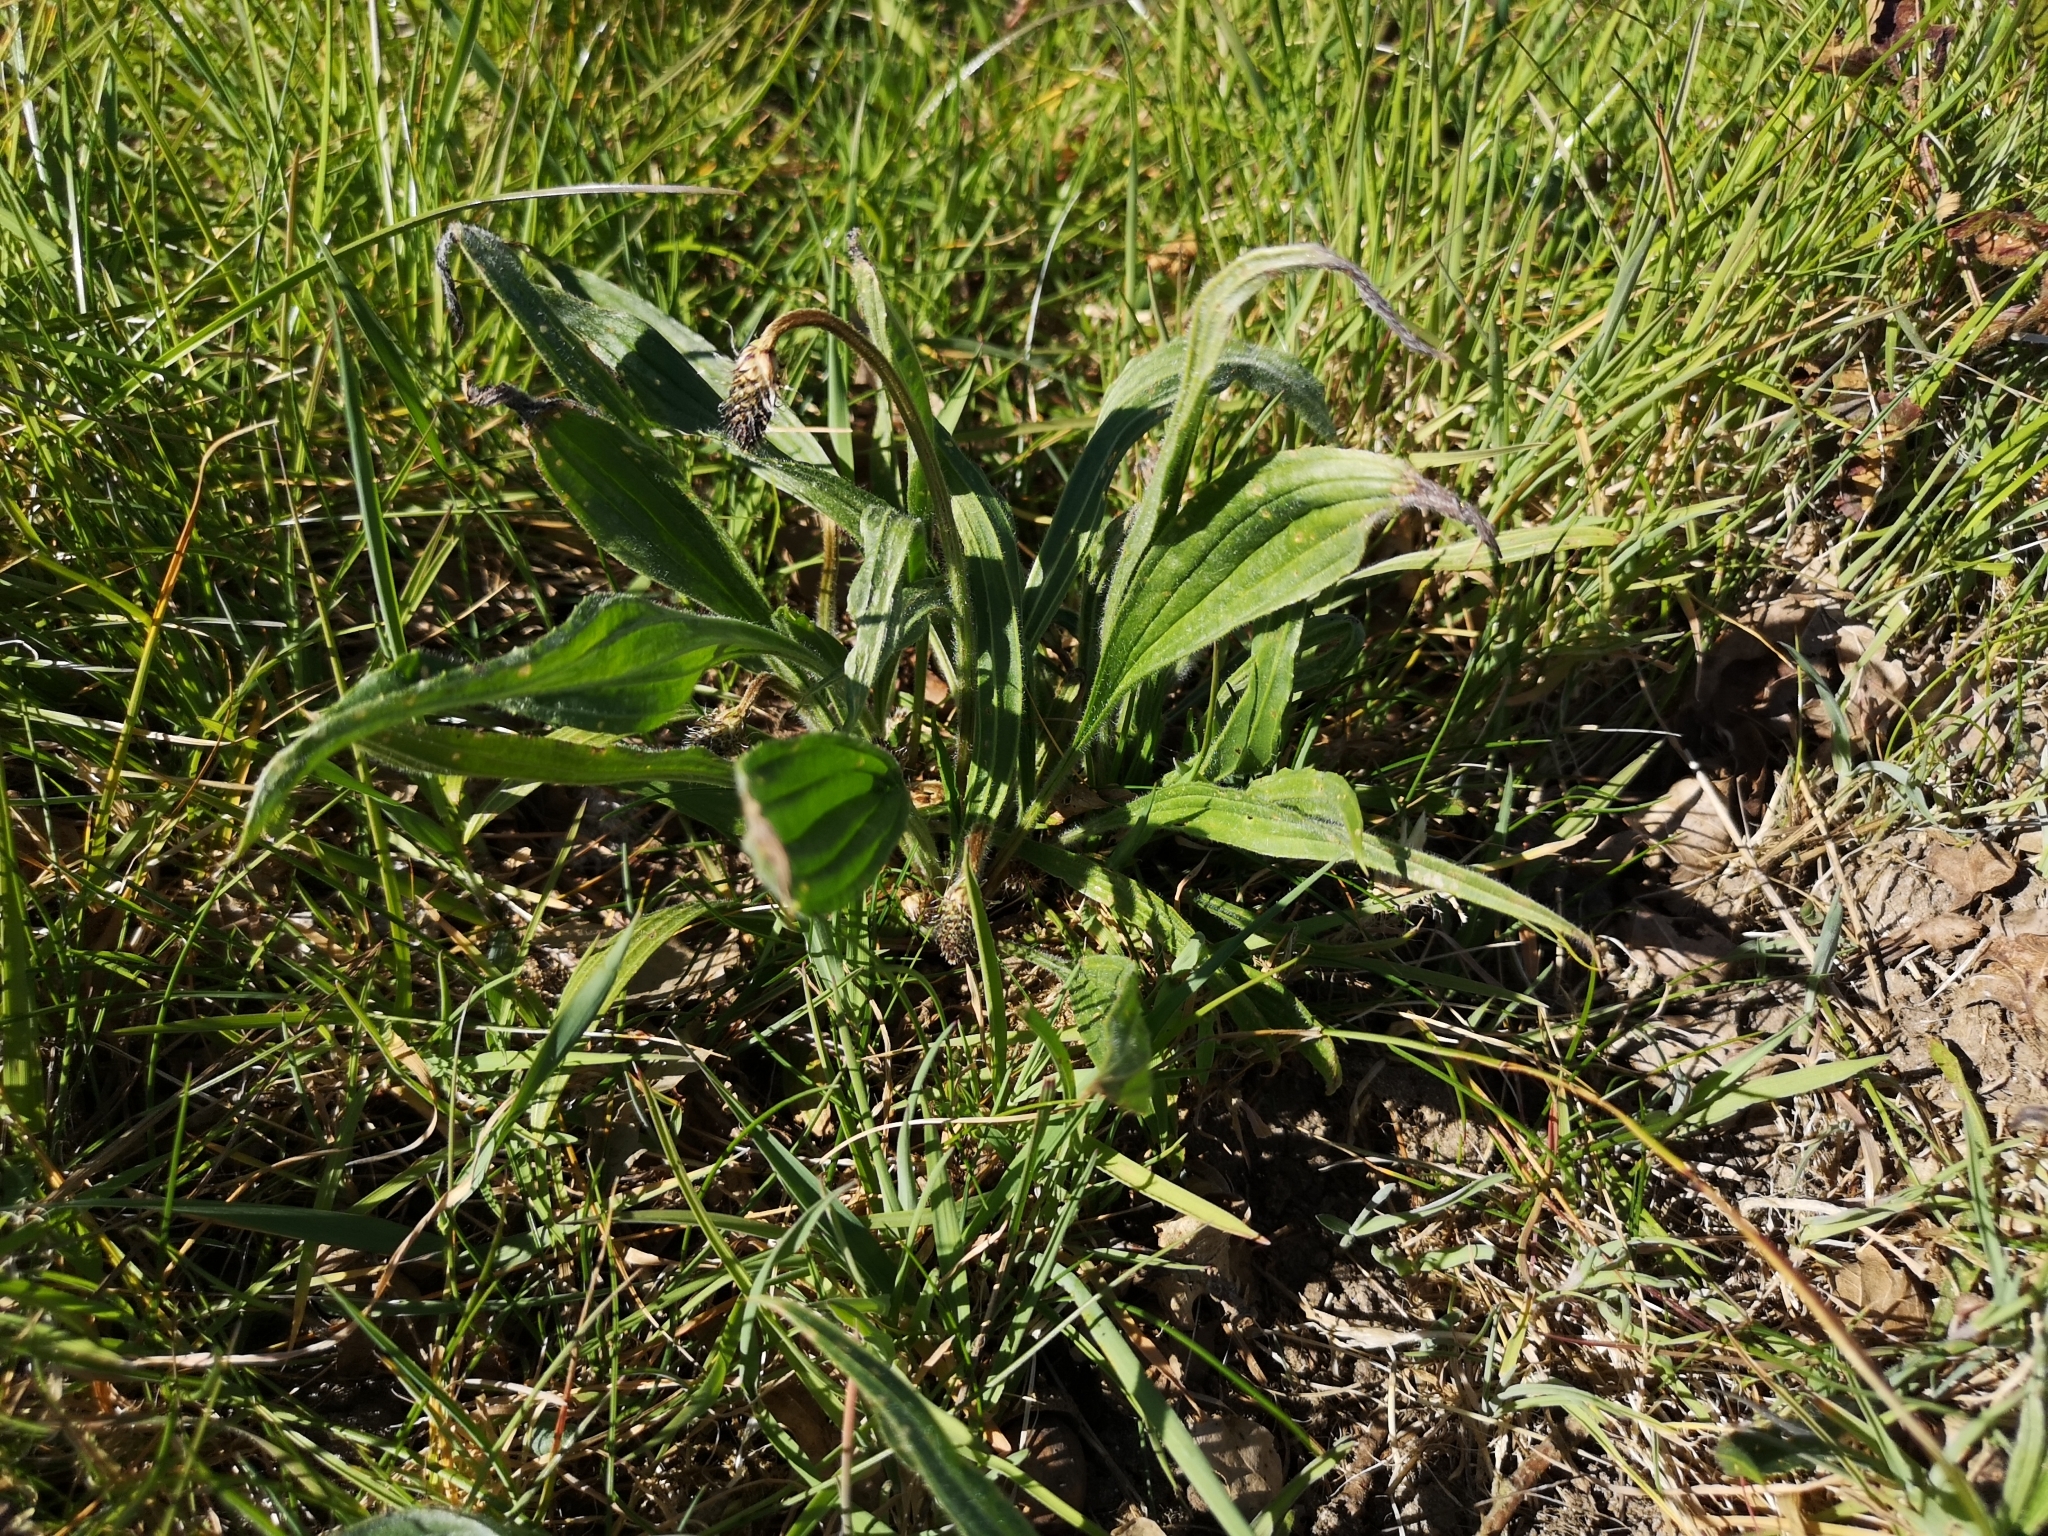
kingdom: Plantae
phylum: Tracheophyta
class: Magnoliopsida
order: Lamiales
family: Plantaginaceae
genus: Plantago
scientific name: Plantago lanceolata
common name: Ribwort plantain
